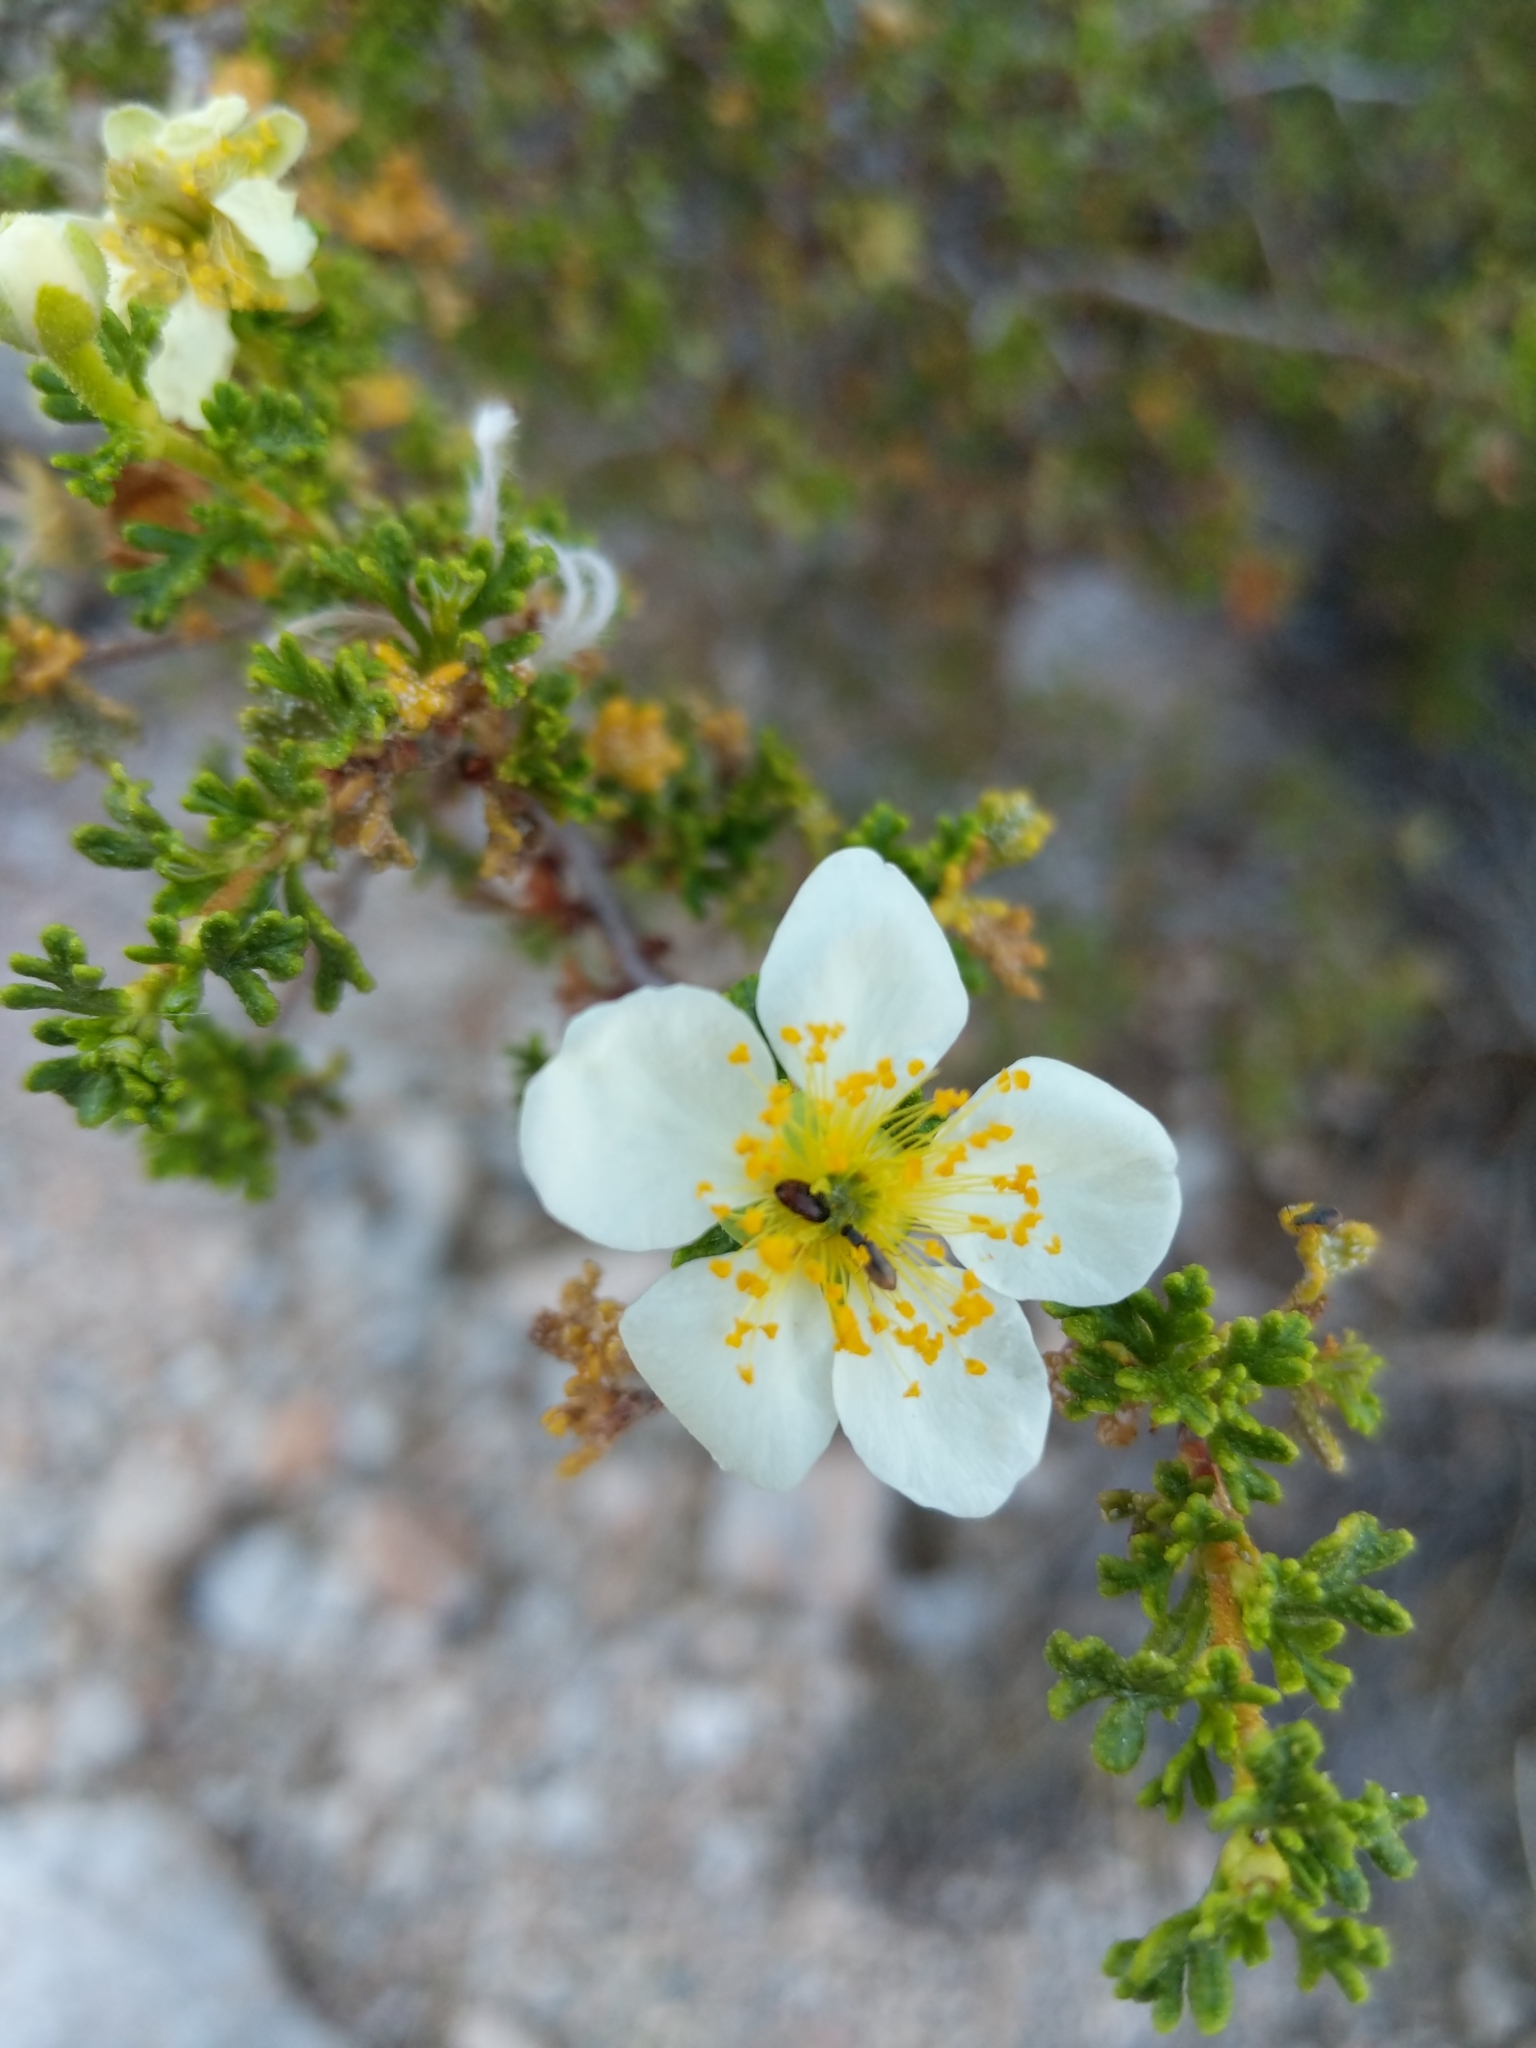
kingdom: Plantae
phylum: Tracheophyta
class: Magnoliopsida
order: Rosales
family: Rosaceae
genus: Fallugia
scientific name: Fallugia paradoxa
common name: Apache-plume
